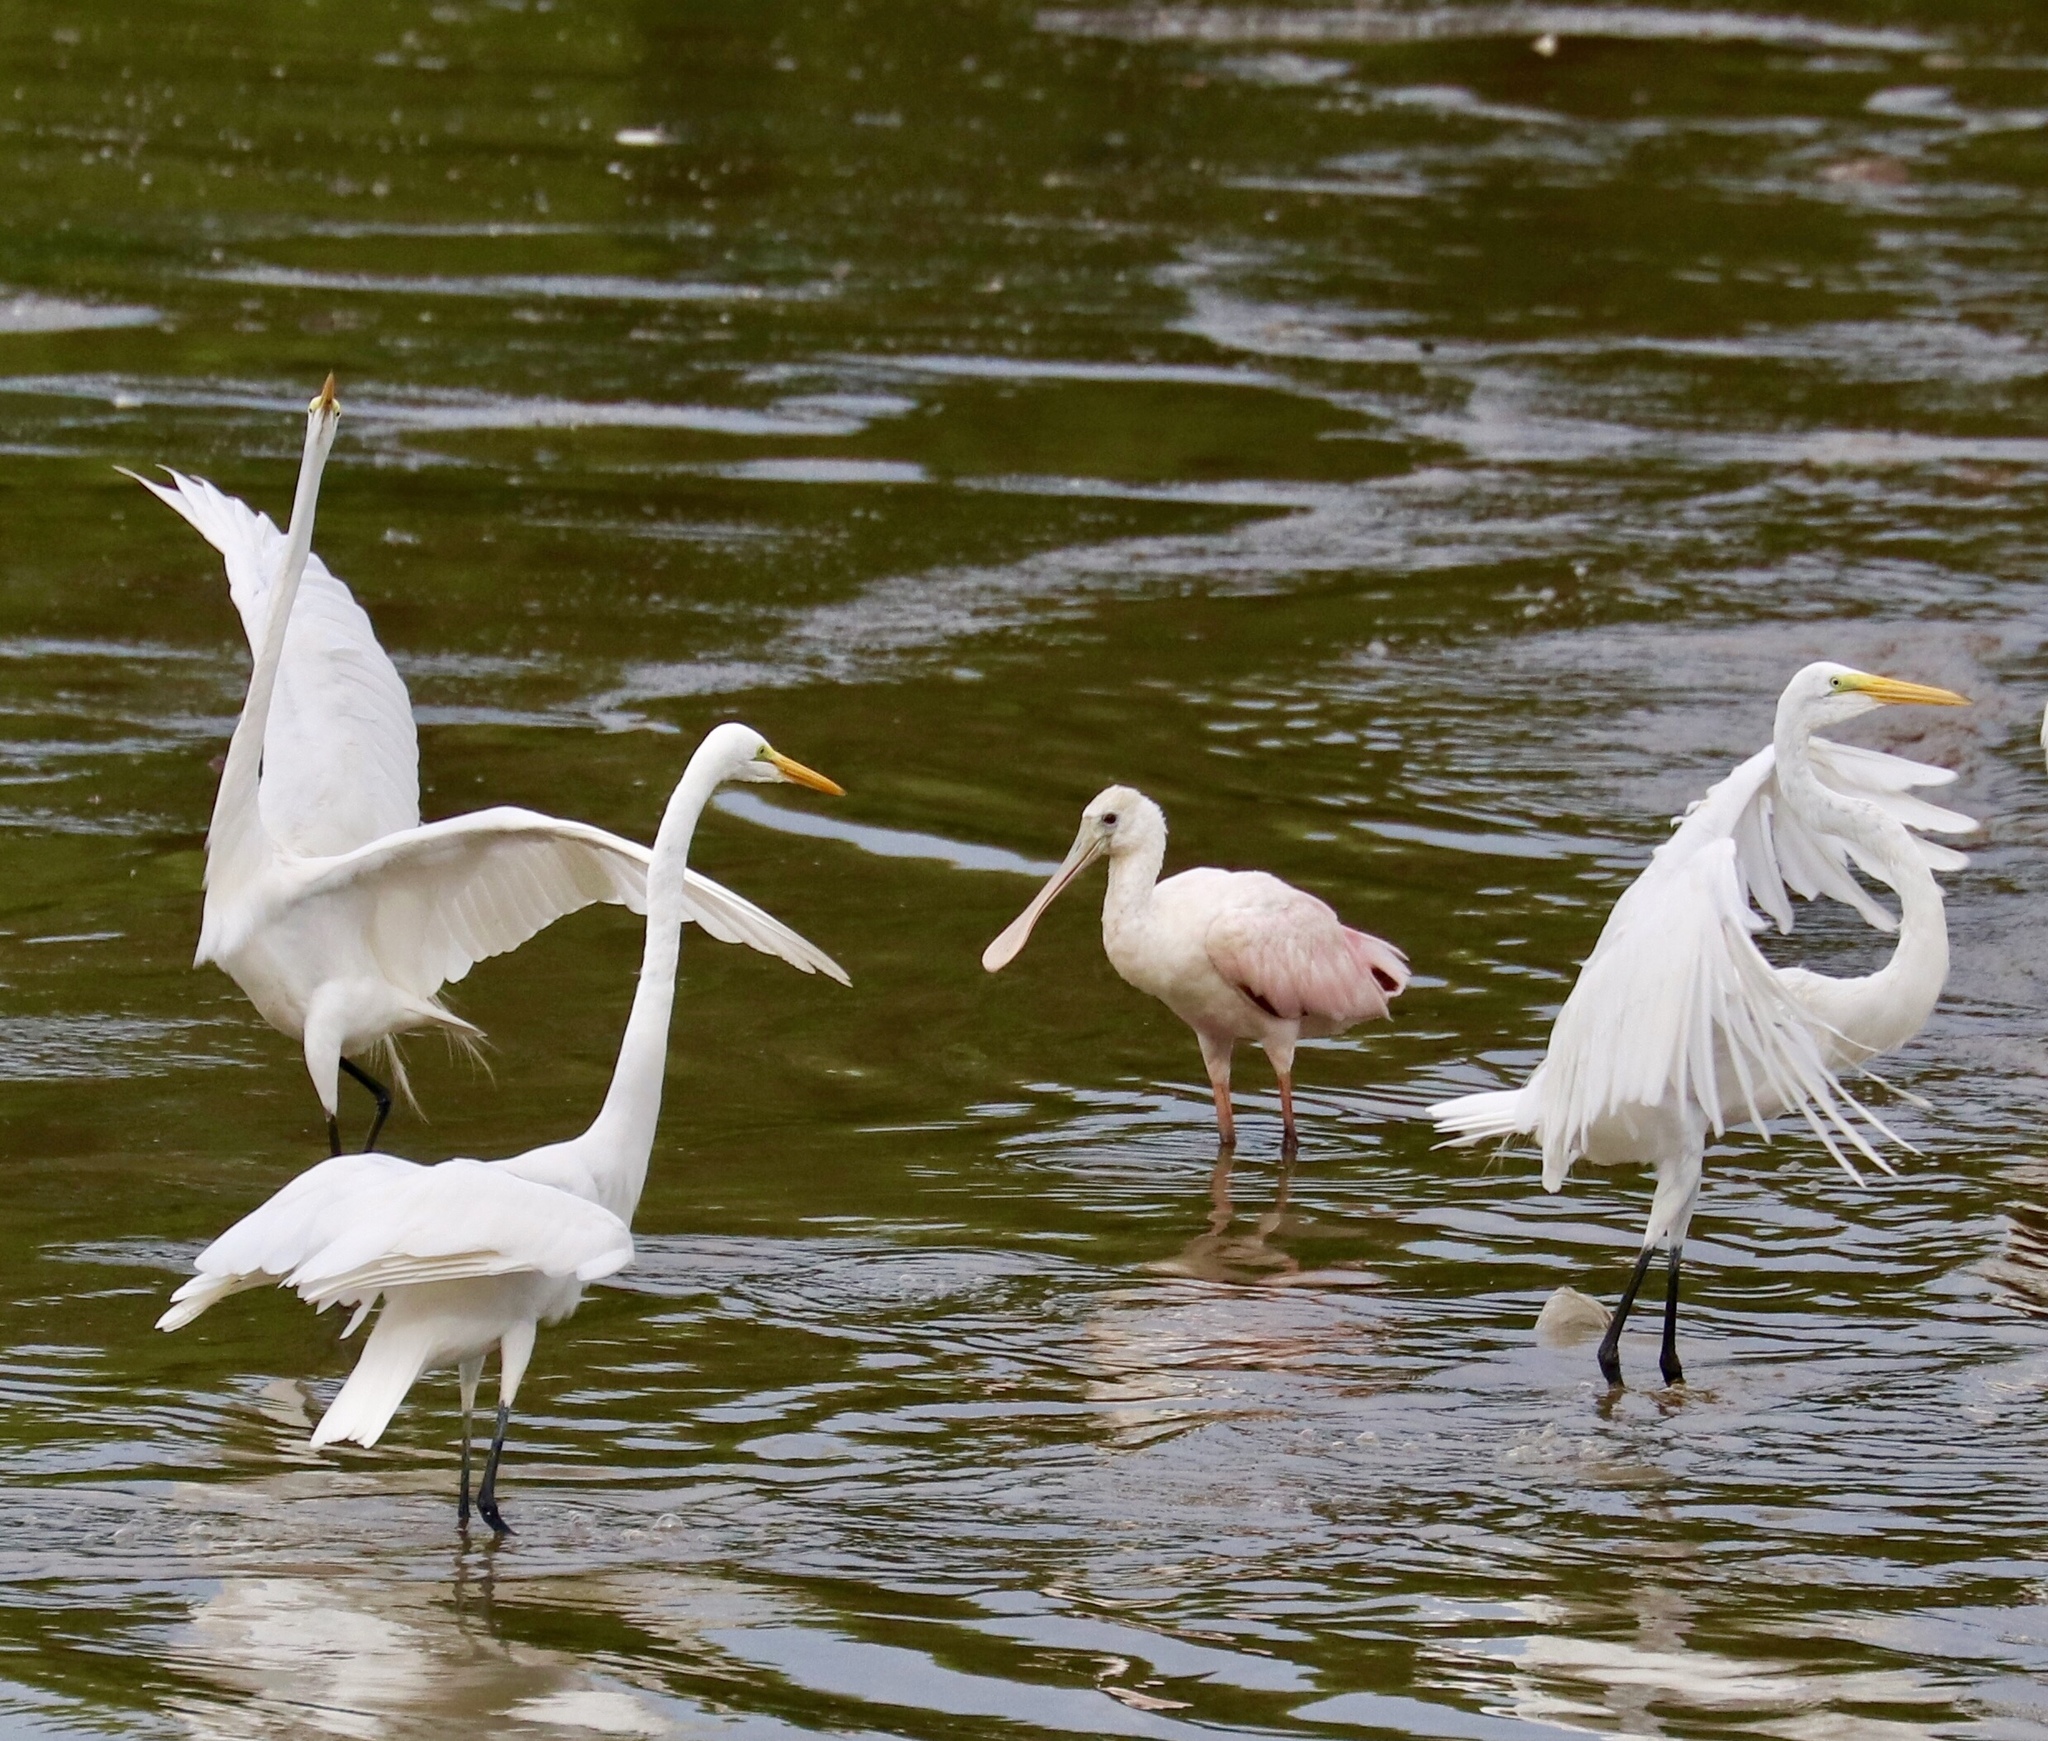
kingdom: Animalia
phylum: Chordata
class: Aves
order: Pelecaniformes
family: Threskiornithidae
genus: Platalea
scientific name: Platalea ajaja
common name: Roseate spoonbill
